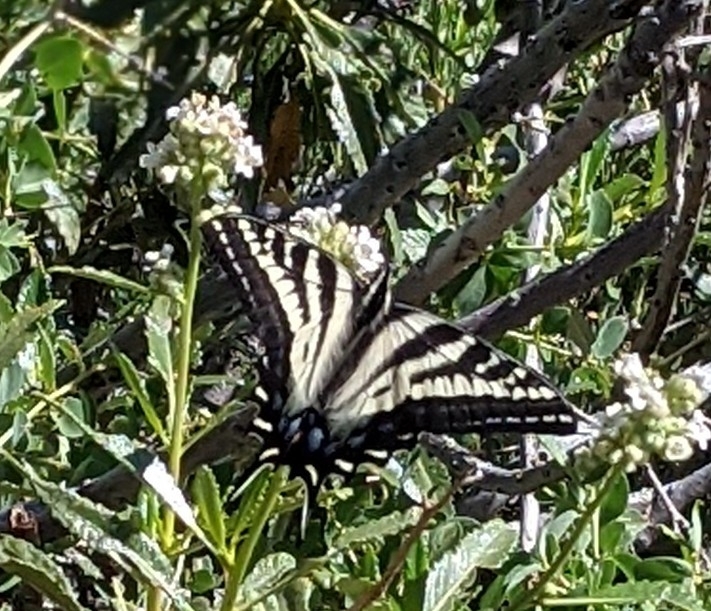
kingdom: Animalia
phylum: Arthropoda
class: Insecta
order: Lepidoptera
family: Papilionidae
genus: Papilio
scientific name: Papilio eurymedon
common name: Pale tiger swallowtail
